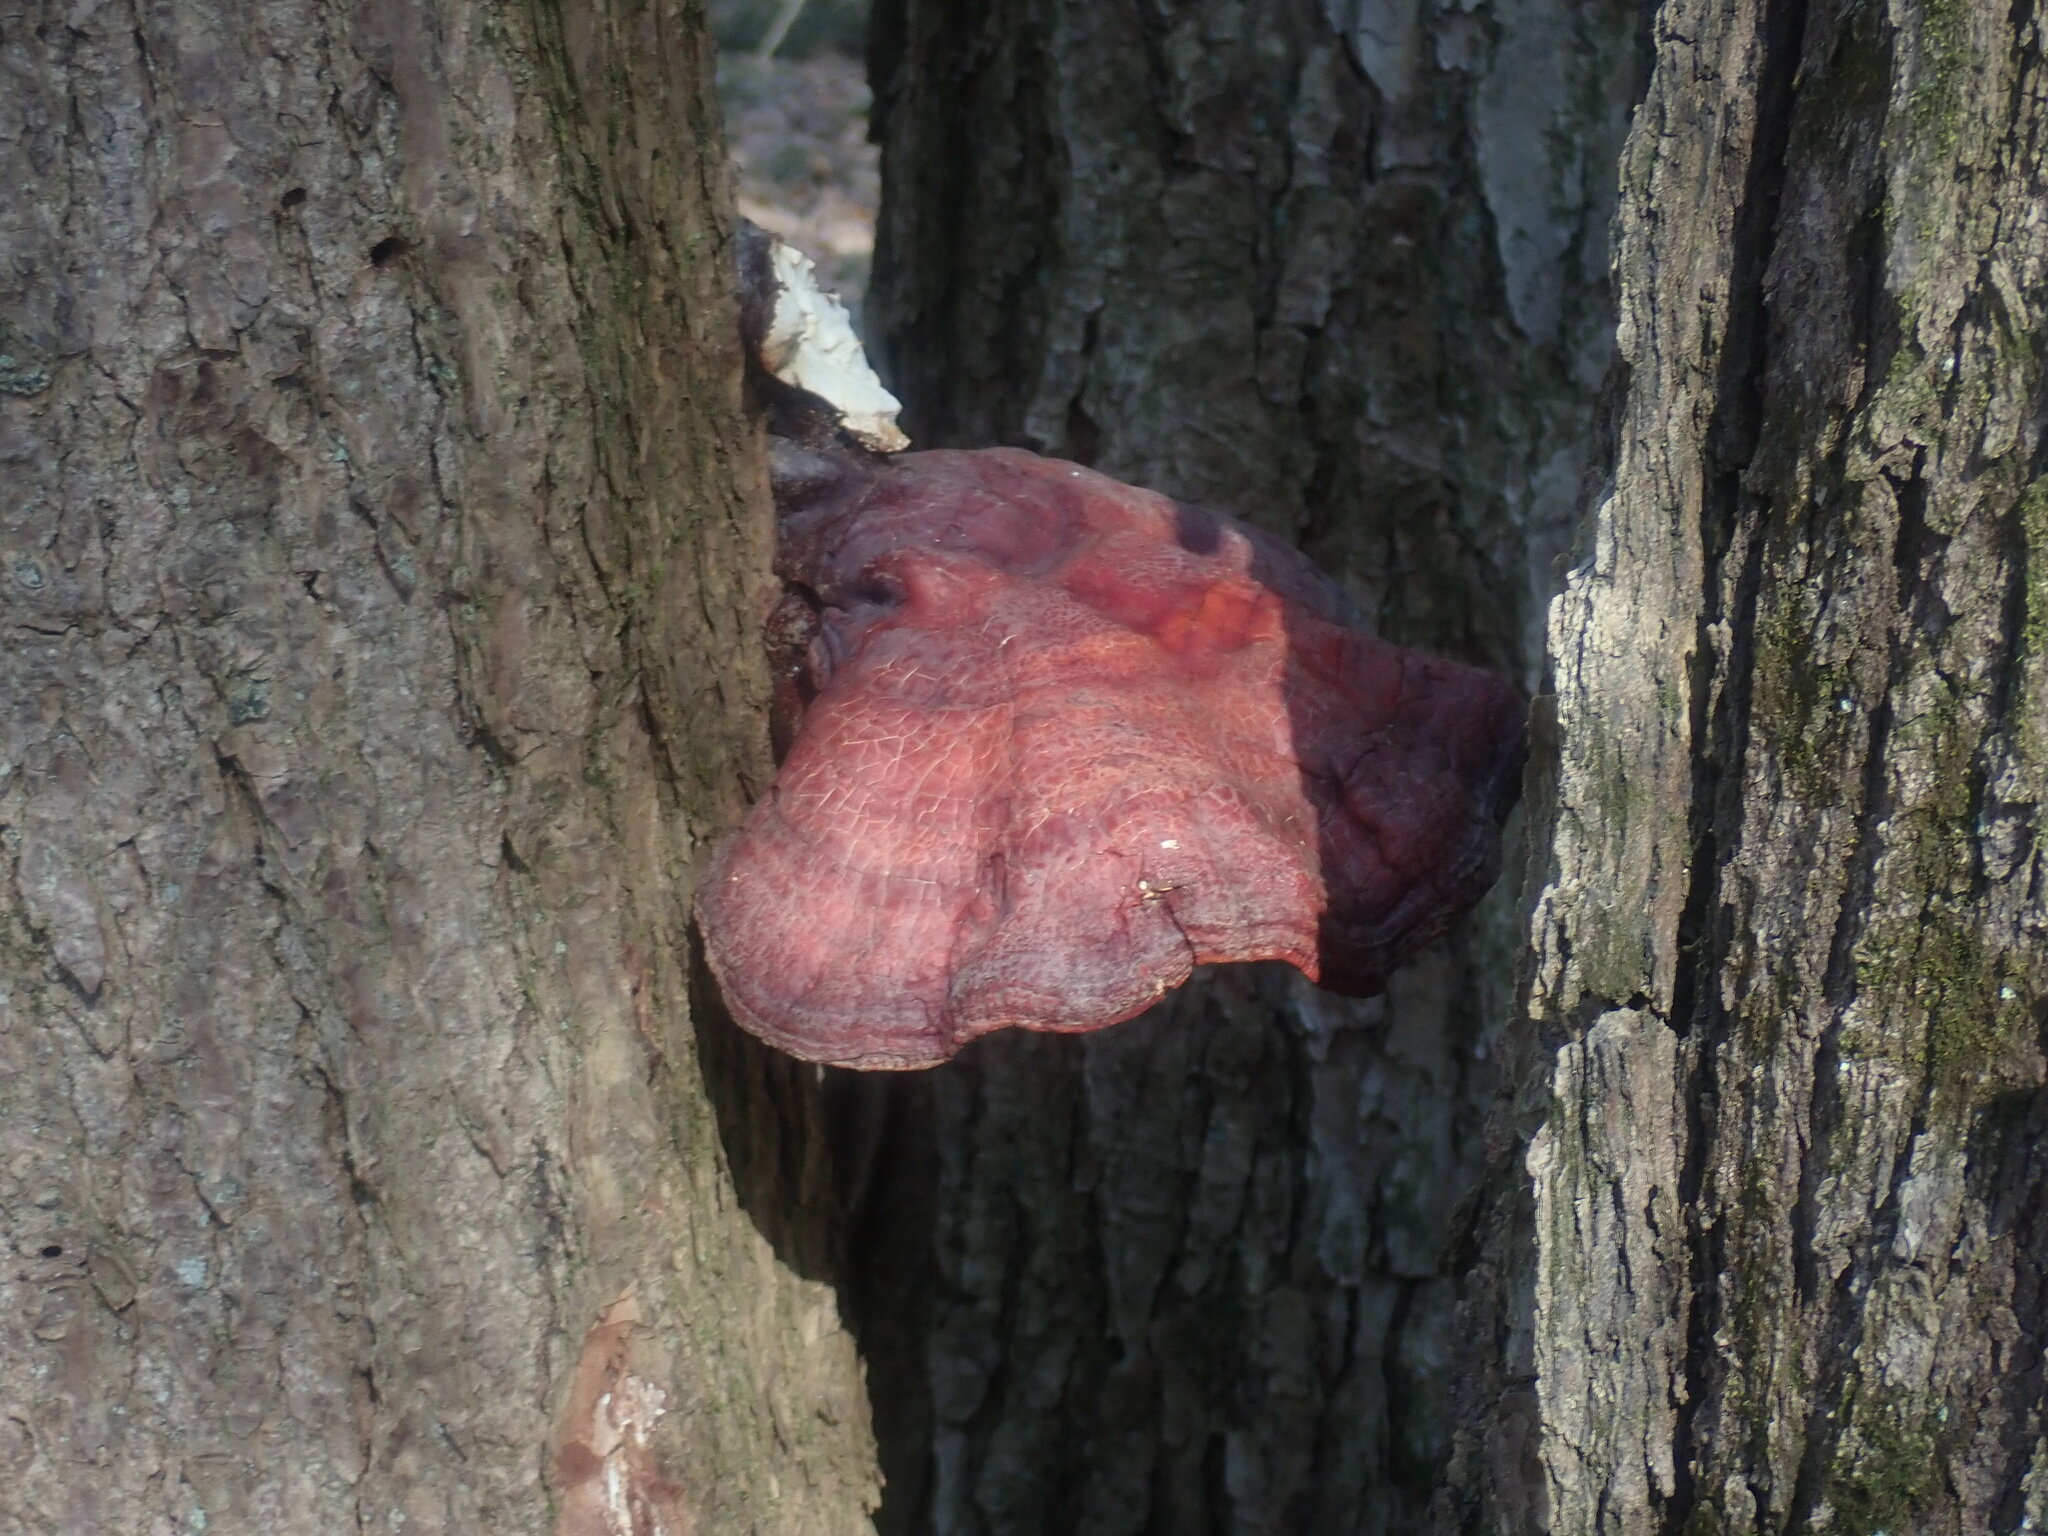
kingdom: Fungi
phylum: Basidiomycota
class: Agaricomycetes
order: Polyporales
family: Polyporaceae
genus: Ganoderma
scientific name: Ganoderma tsugae
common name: Hemlock varnish shelf
